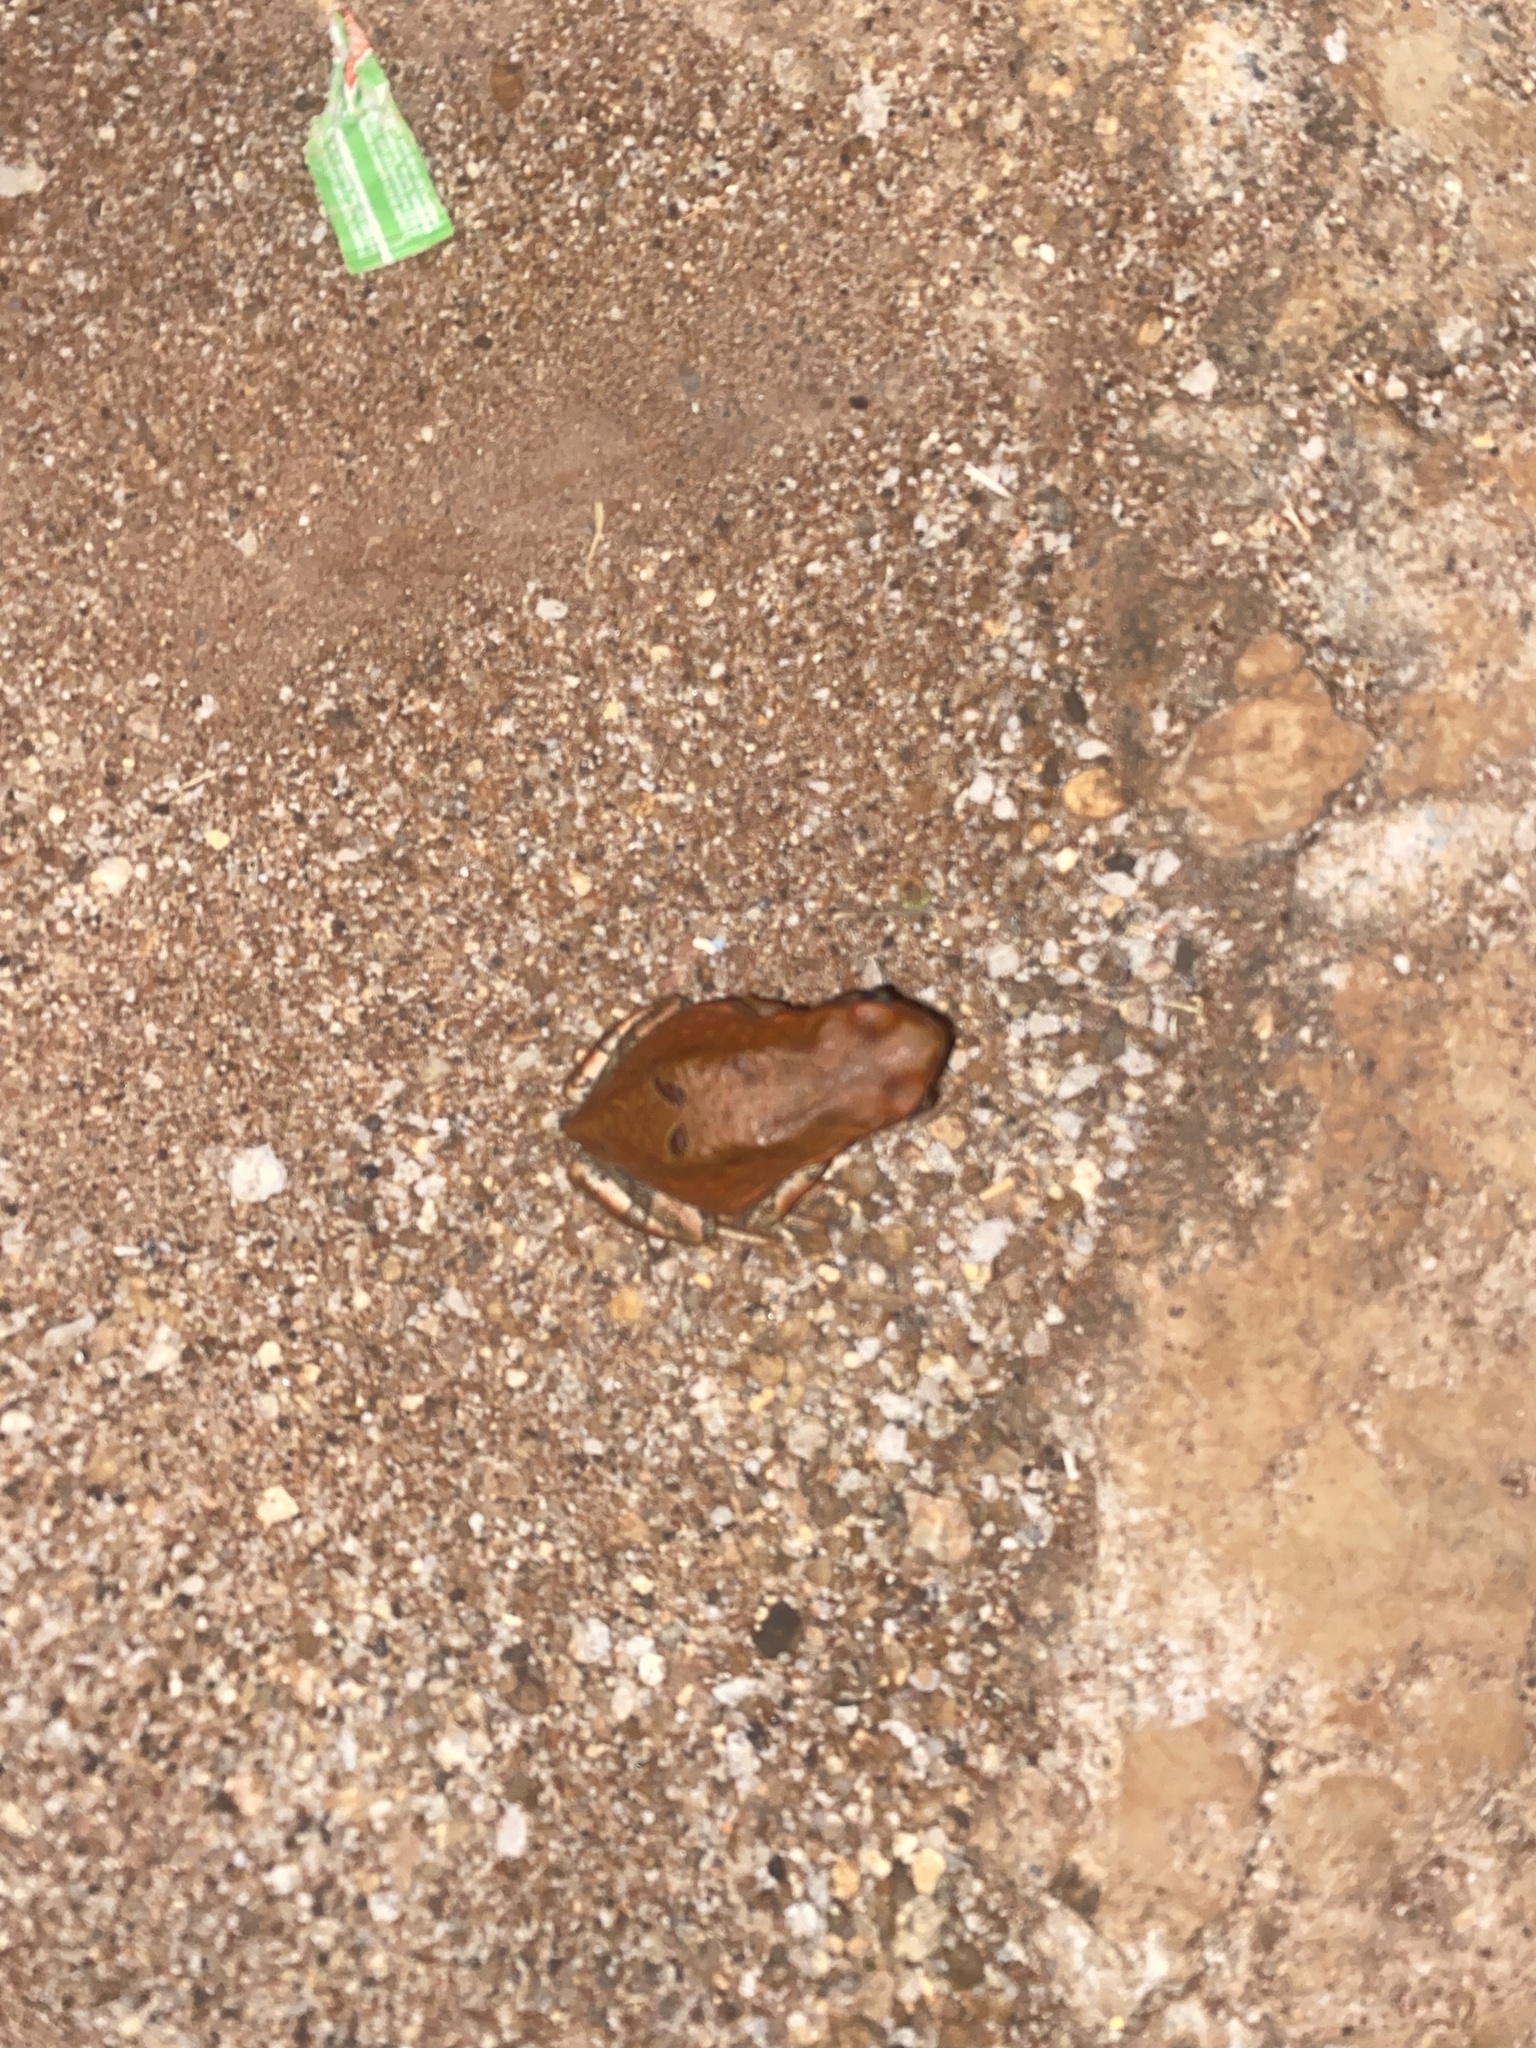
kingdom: Animalia
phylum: Chordata
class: Amphibia
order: Anura
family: Bufonidae
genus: Schismaderma
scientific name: Schismaderma carens
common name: African split-skin toad
